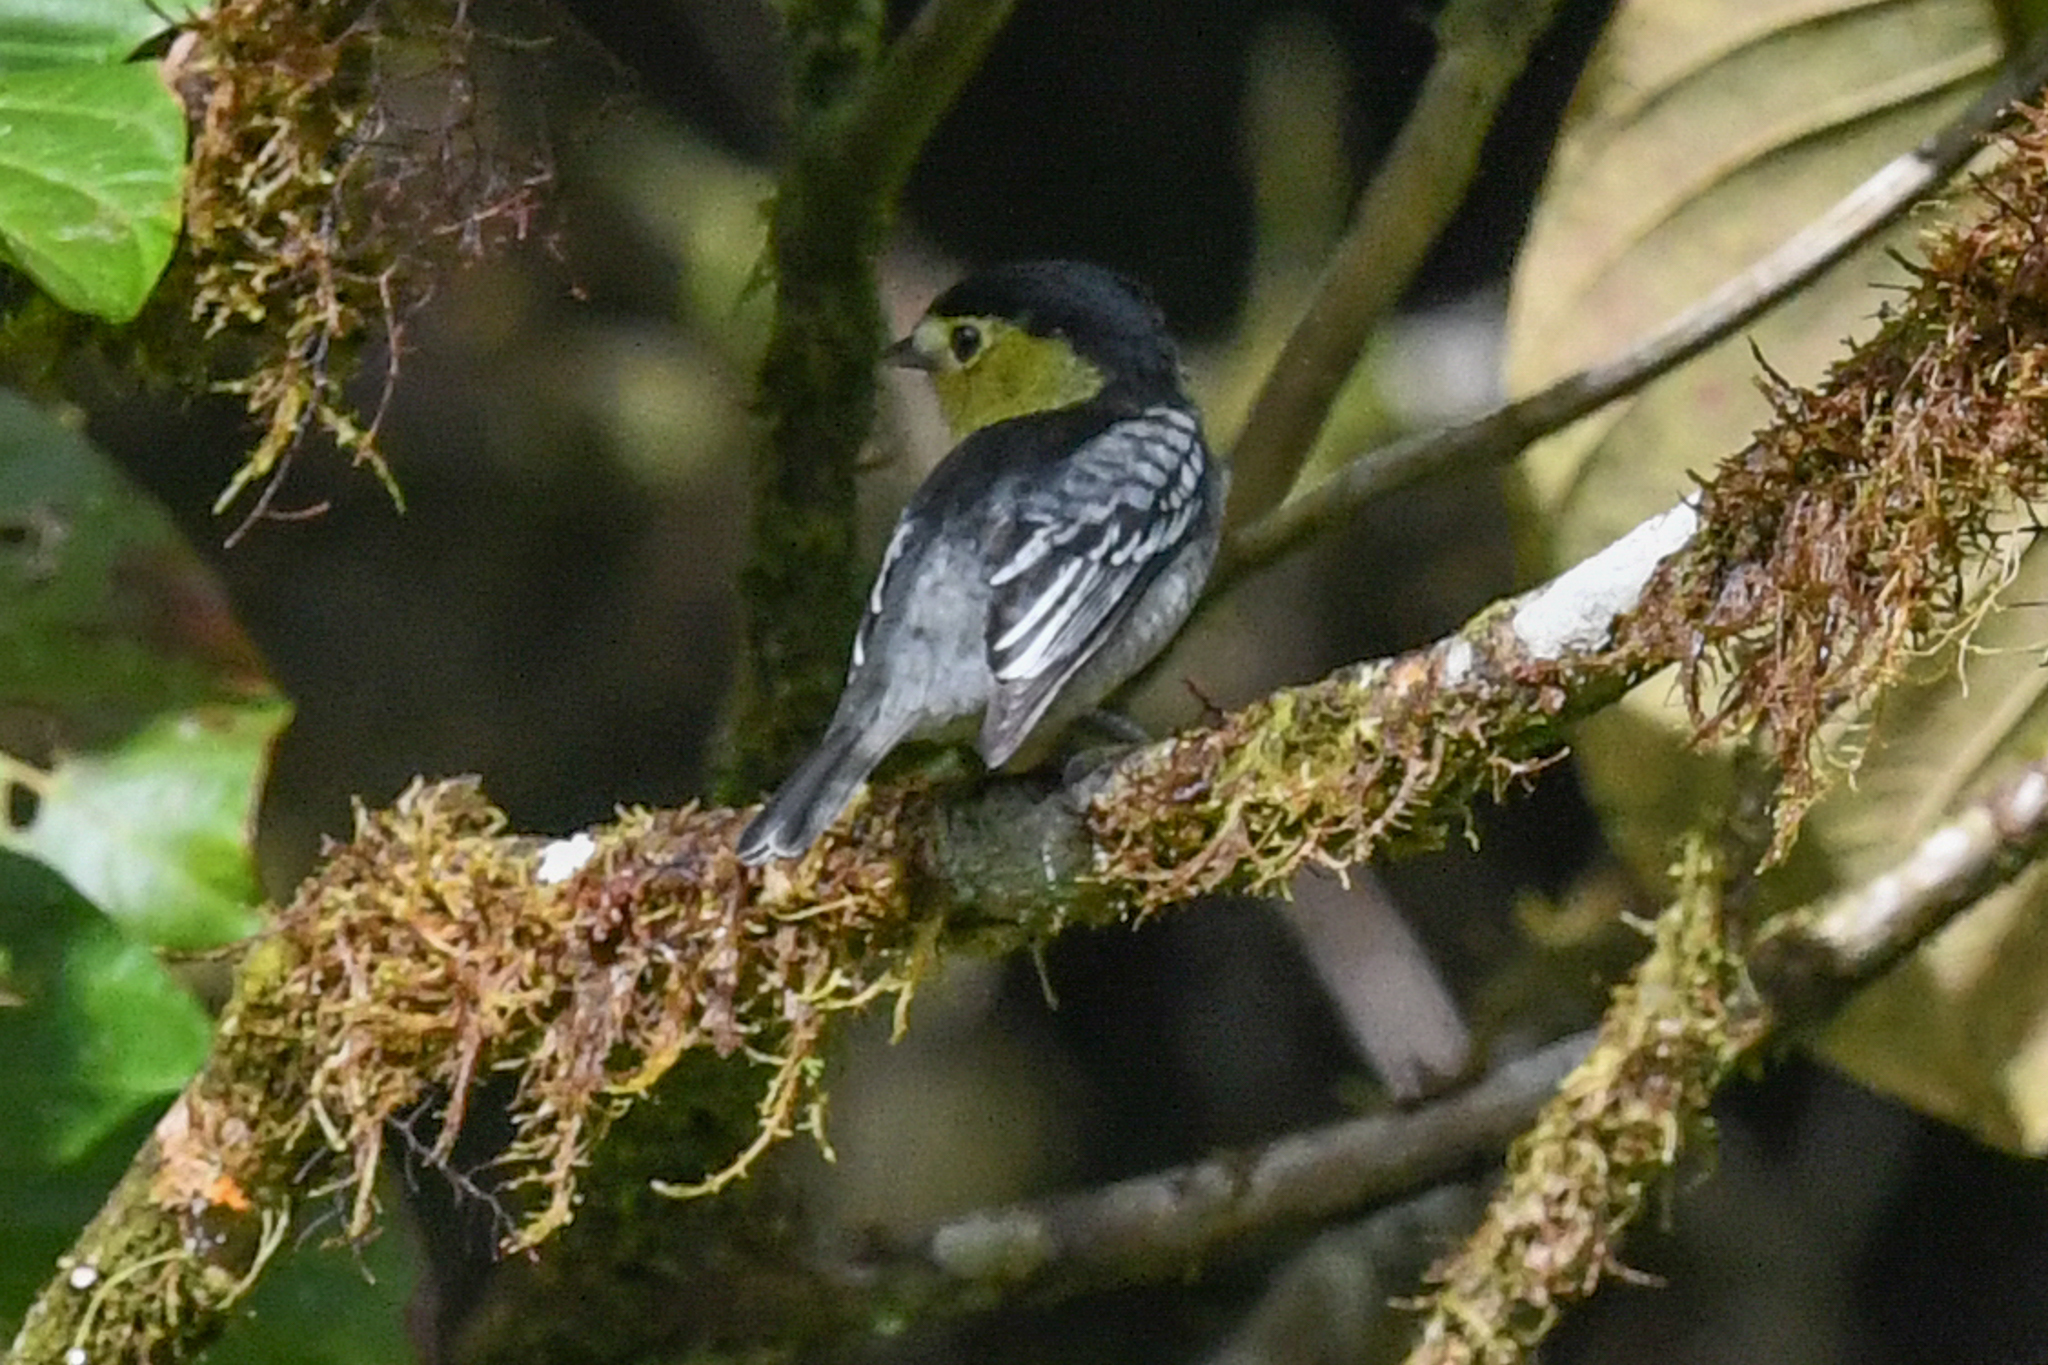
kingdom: Animalia
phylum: Chordata
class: Aves
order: Passeriformes
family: Cotingidae
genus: Pachyramphus
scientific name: Pachyramphus versicolor
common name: Barred becard
